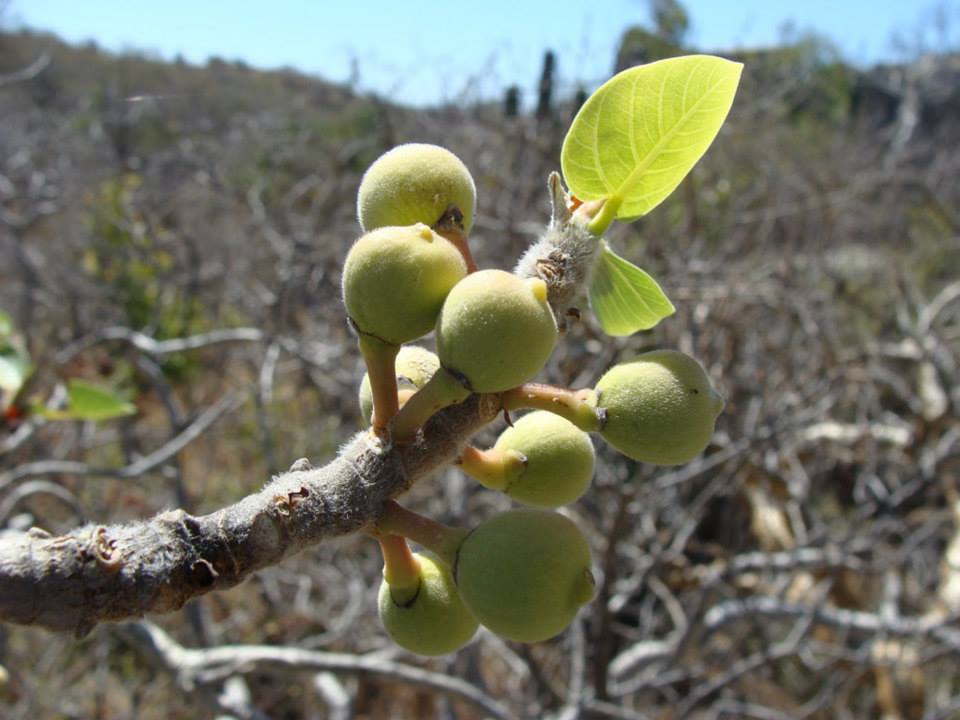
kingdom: Plantae
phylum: Tracheophyta
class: Magnoliopsida
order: Rosales
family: Moraceae
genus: Ficus
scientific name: Ficus petiolaris
